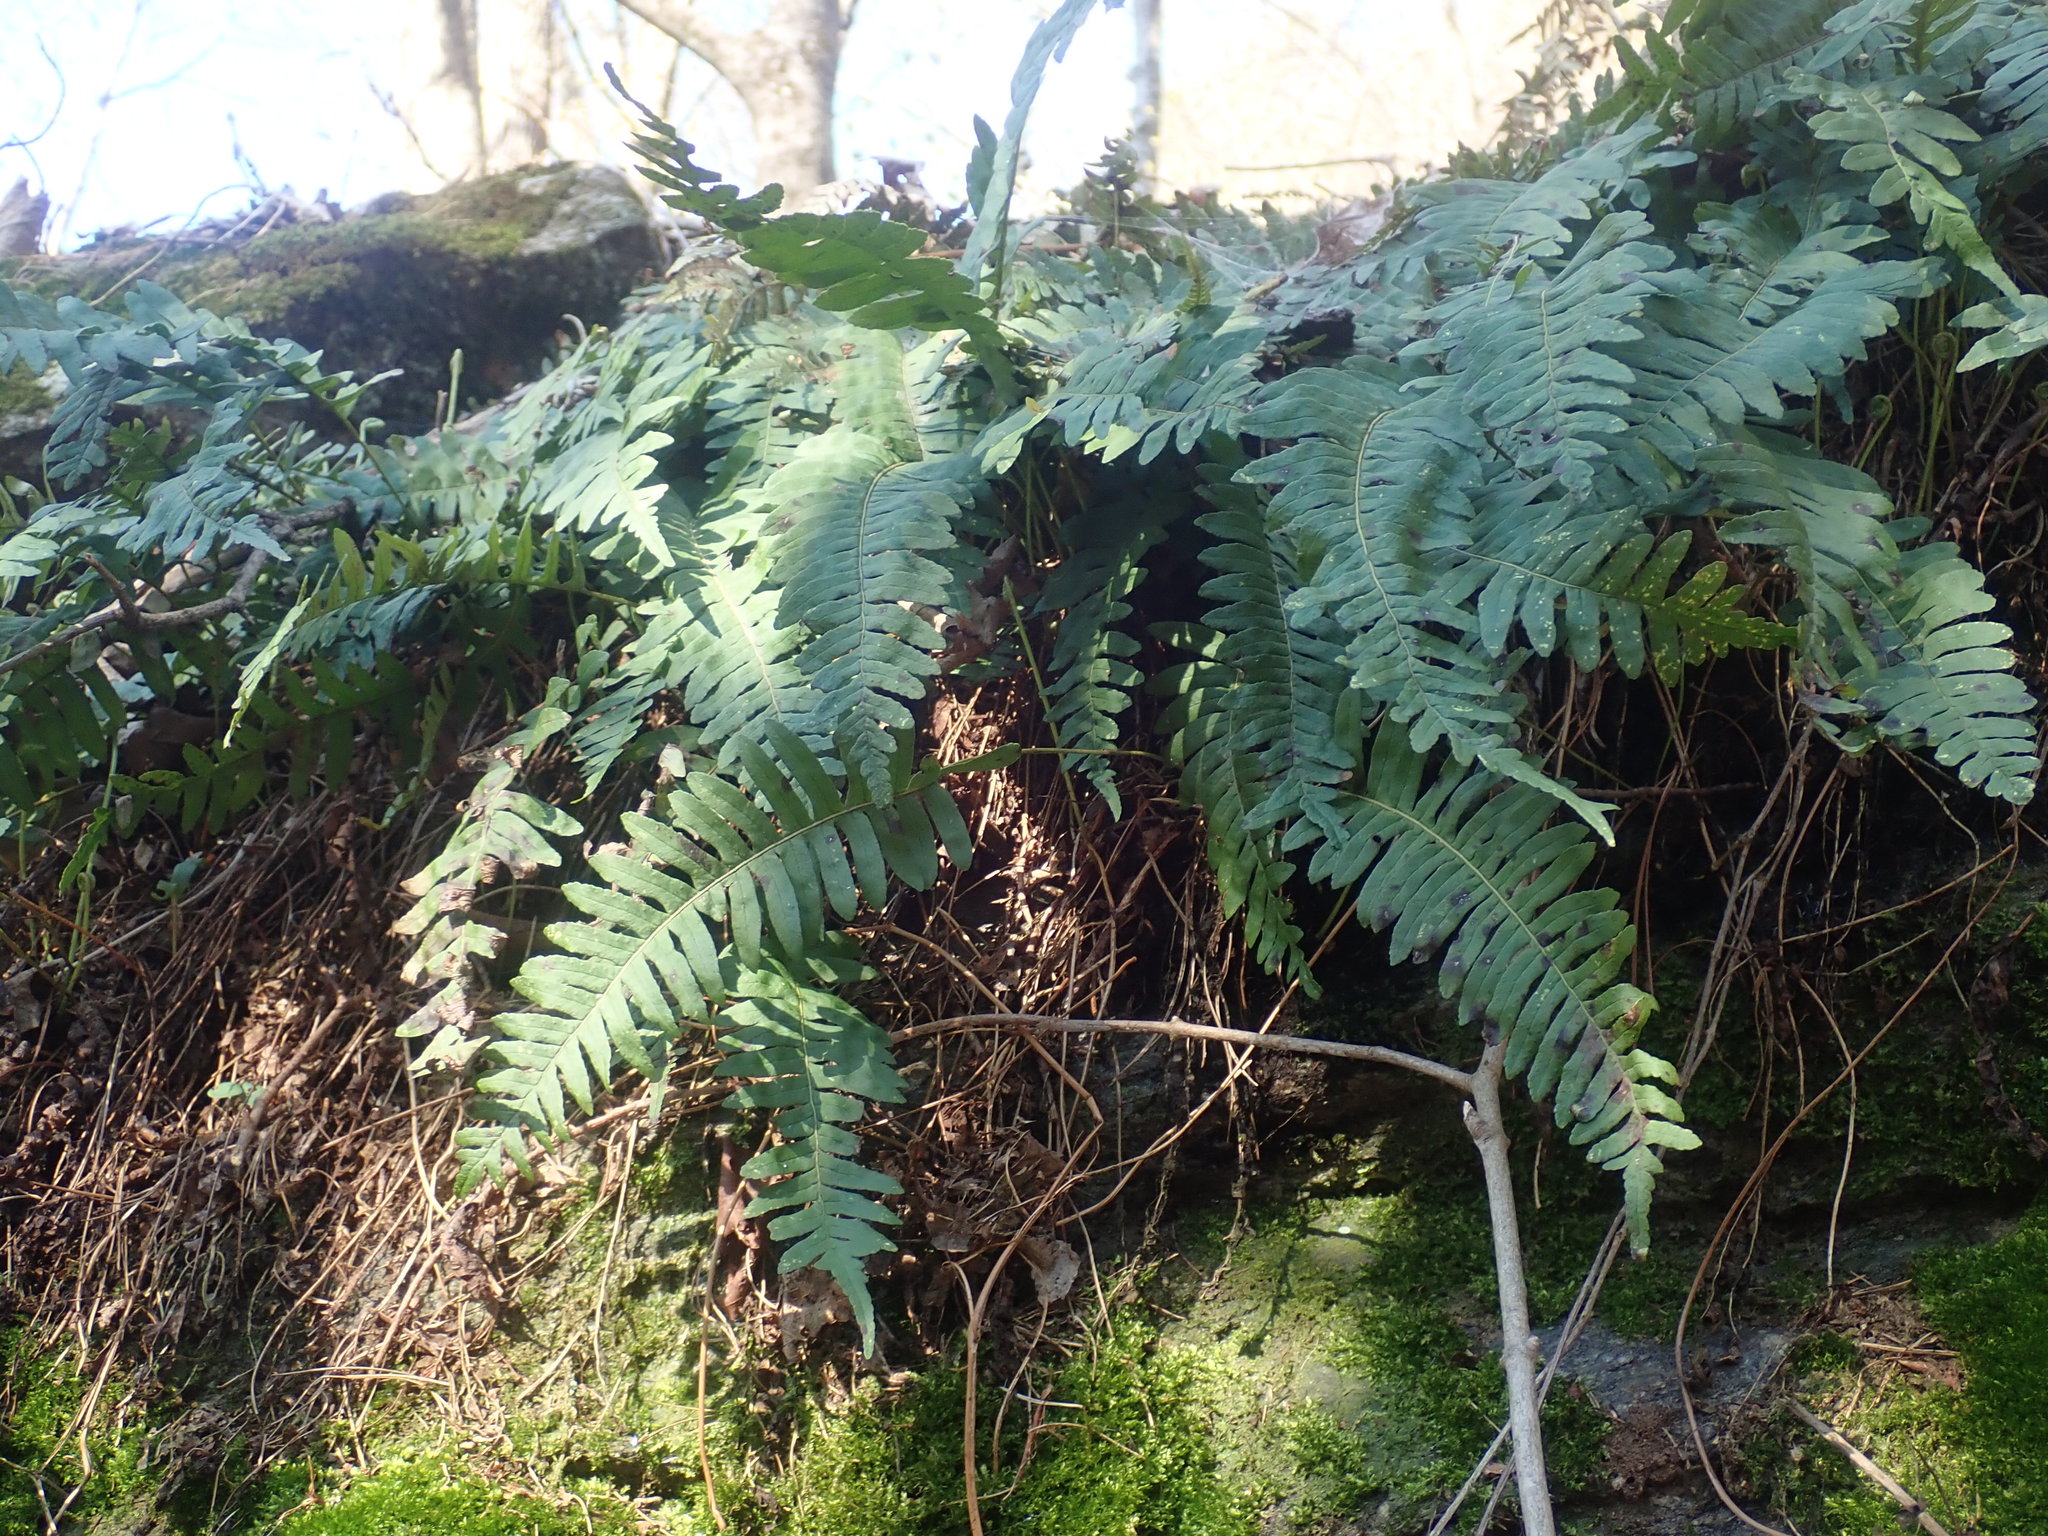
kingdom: Plantae
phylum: Tracheophyta
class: Polypodiopsida
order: Polypodiales
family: Polypodiaceae
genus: Polypodium
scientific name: Polypodium
